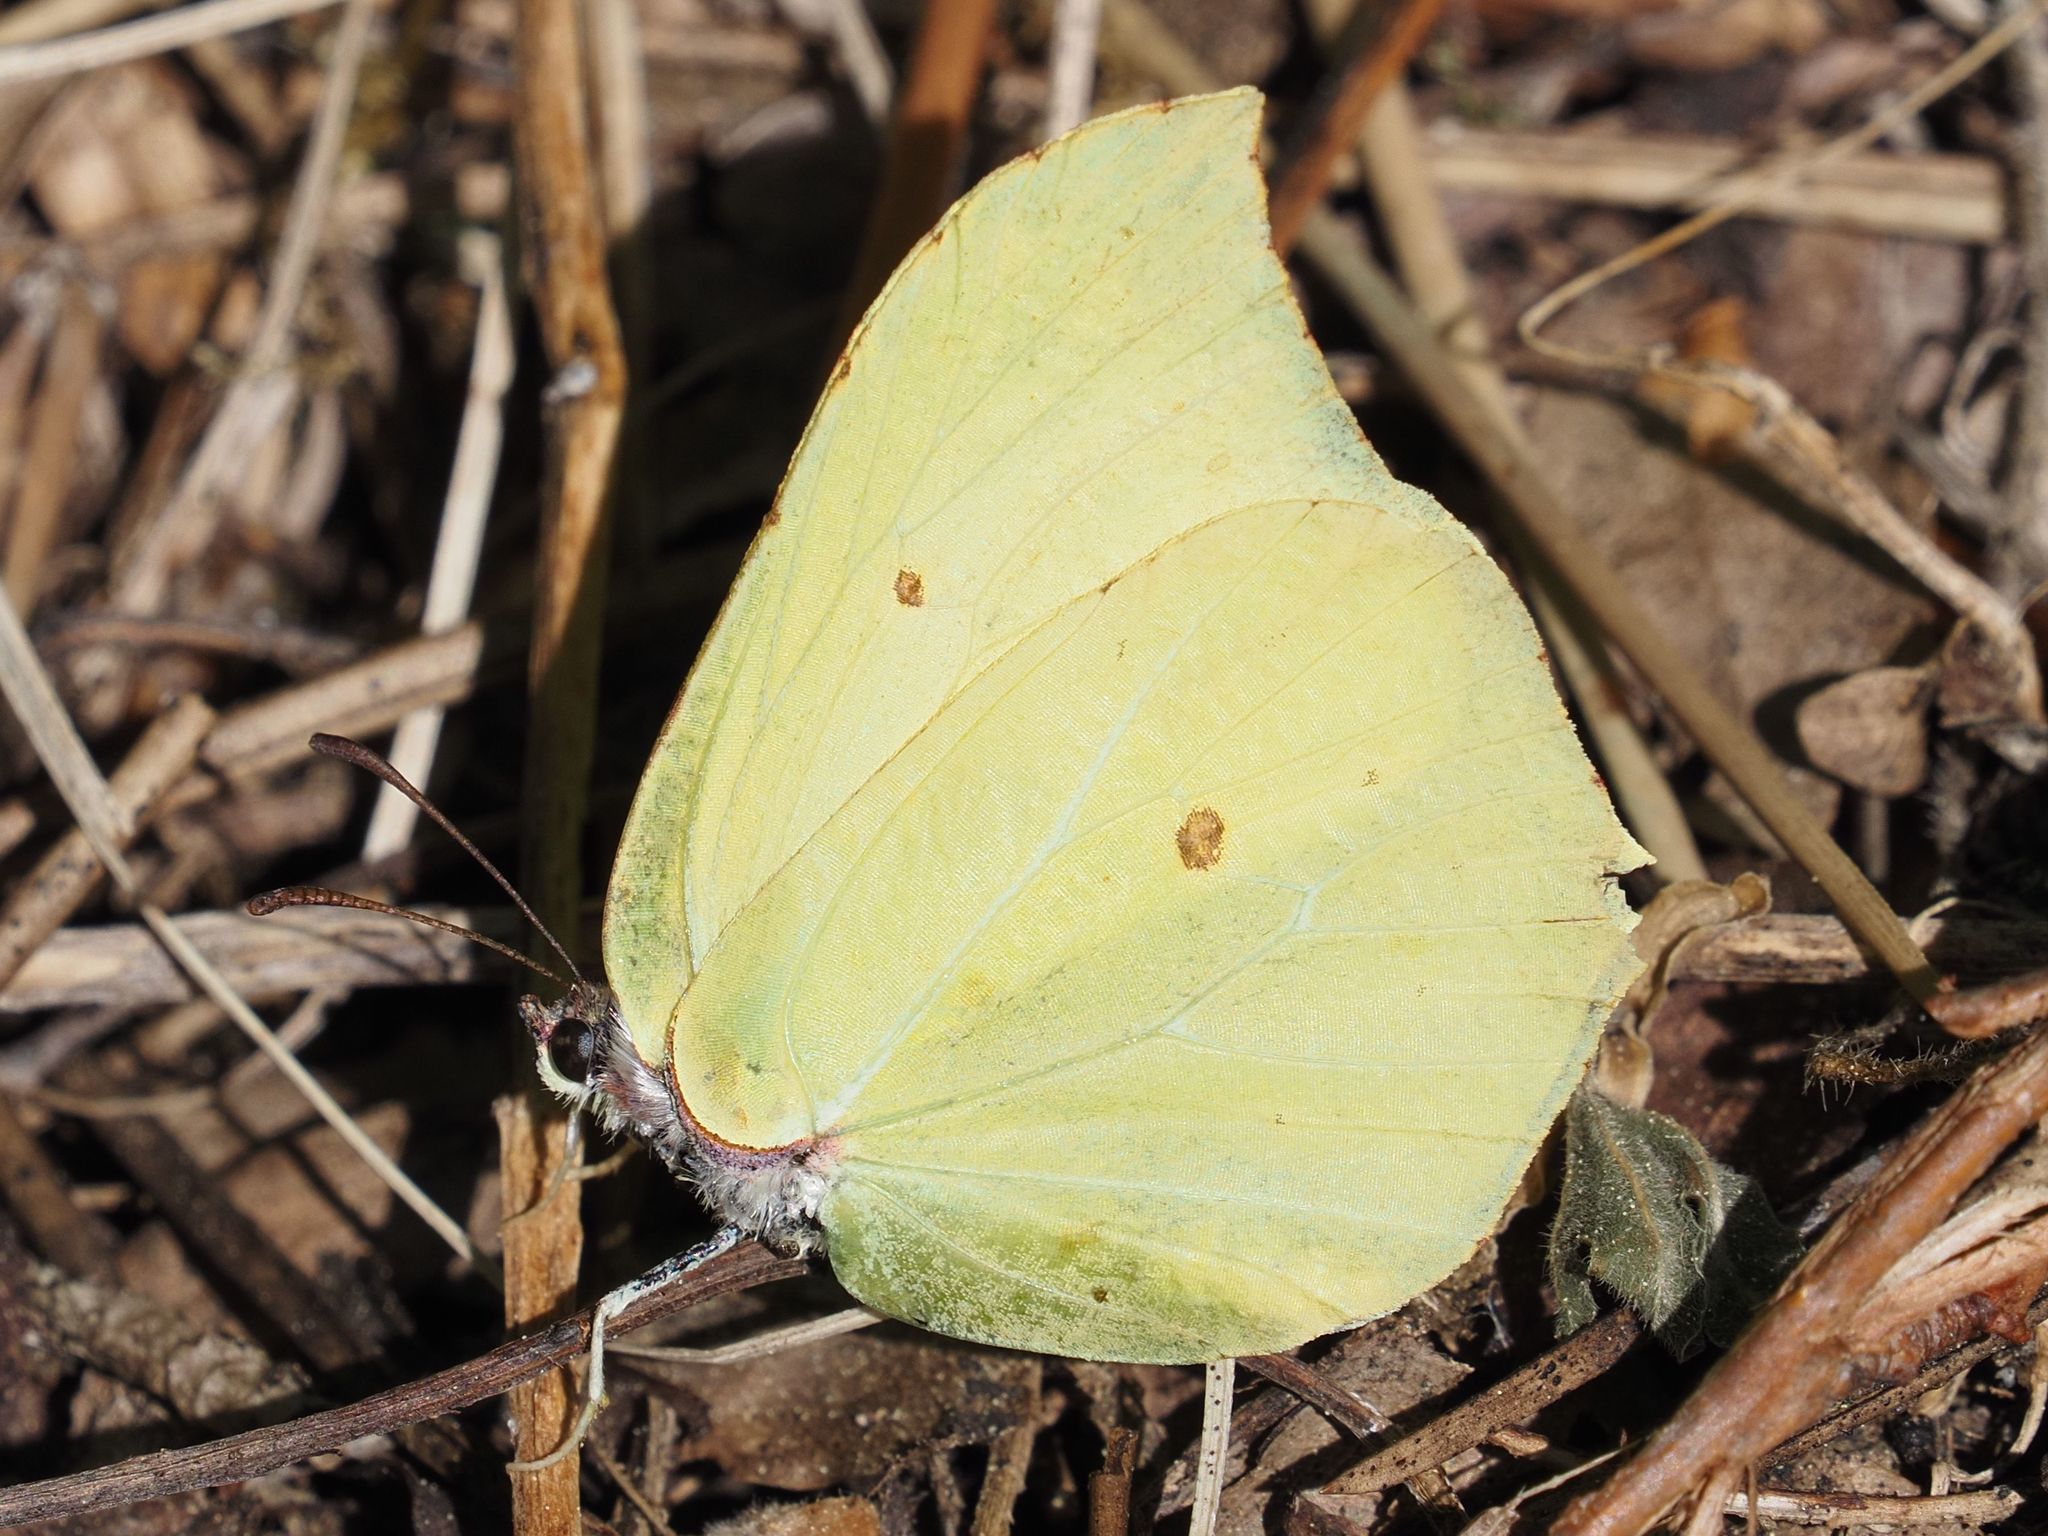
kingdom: Animalia
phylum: Arthropoda
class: Insecta
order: Lepidoptera
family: Pieridae
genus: Gonepteryx
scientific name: Gonepteryx rhamni
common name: Brimstone
